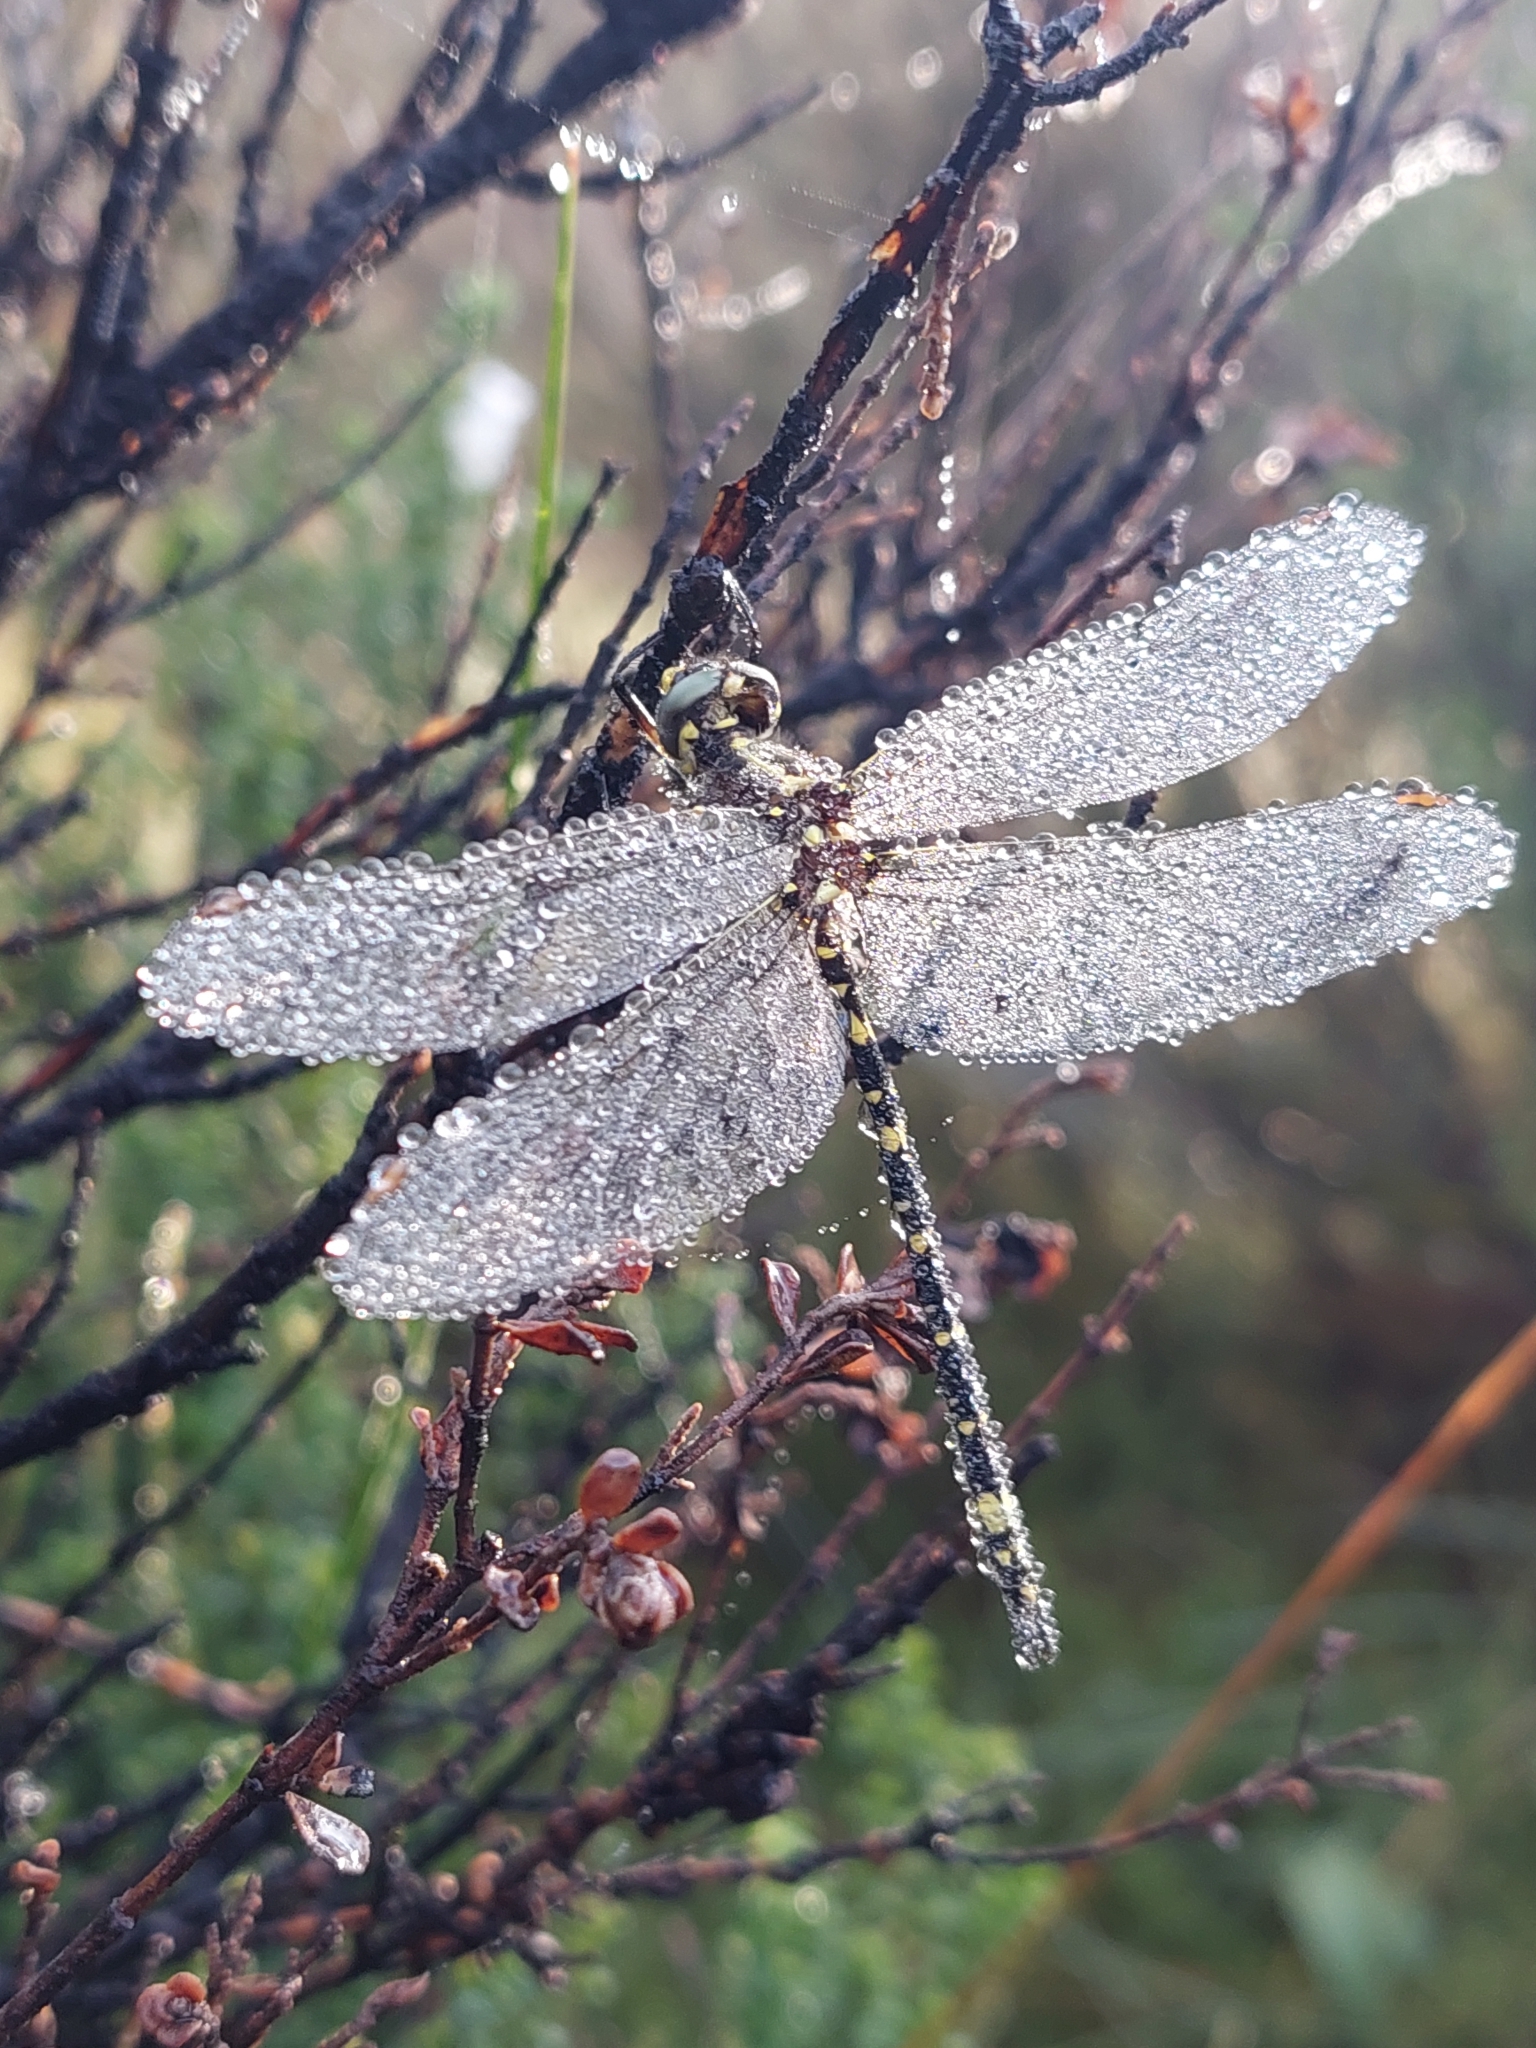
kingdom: Animalia
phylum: Arthropoda
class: Insecta
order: Odonata
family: Synthemistidae
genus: Synthemis
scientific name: Synthemis eustalacta
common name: Swamp tigertail
